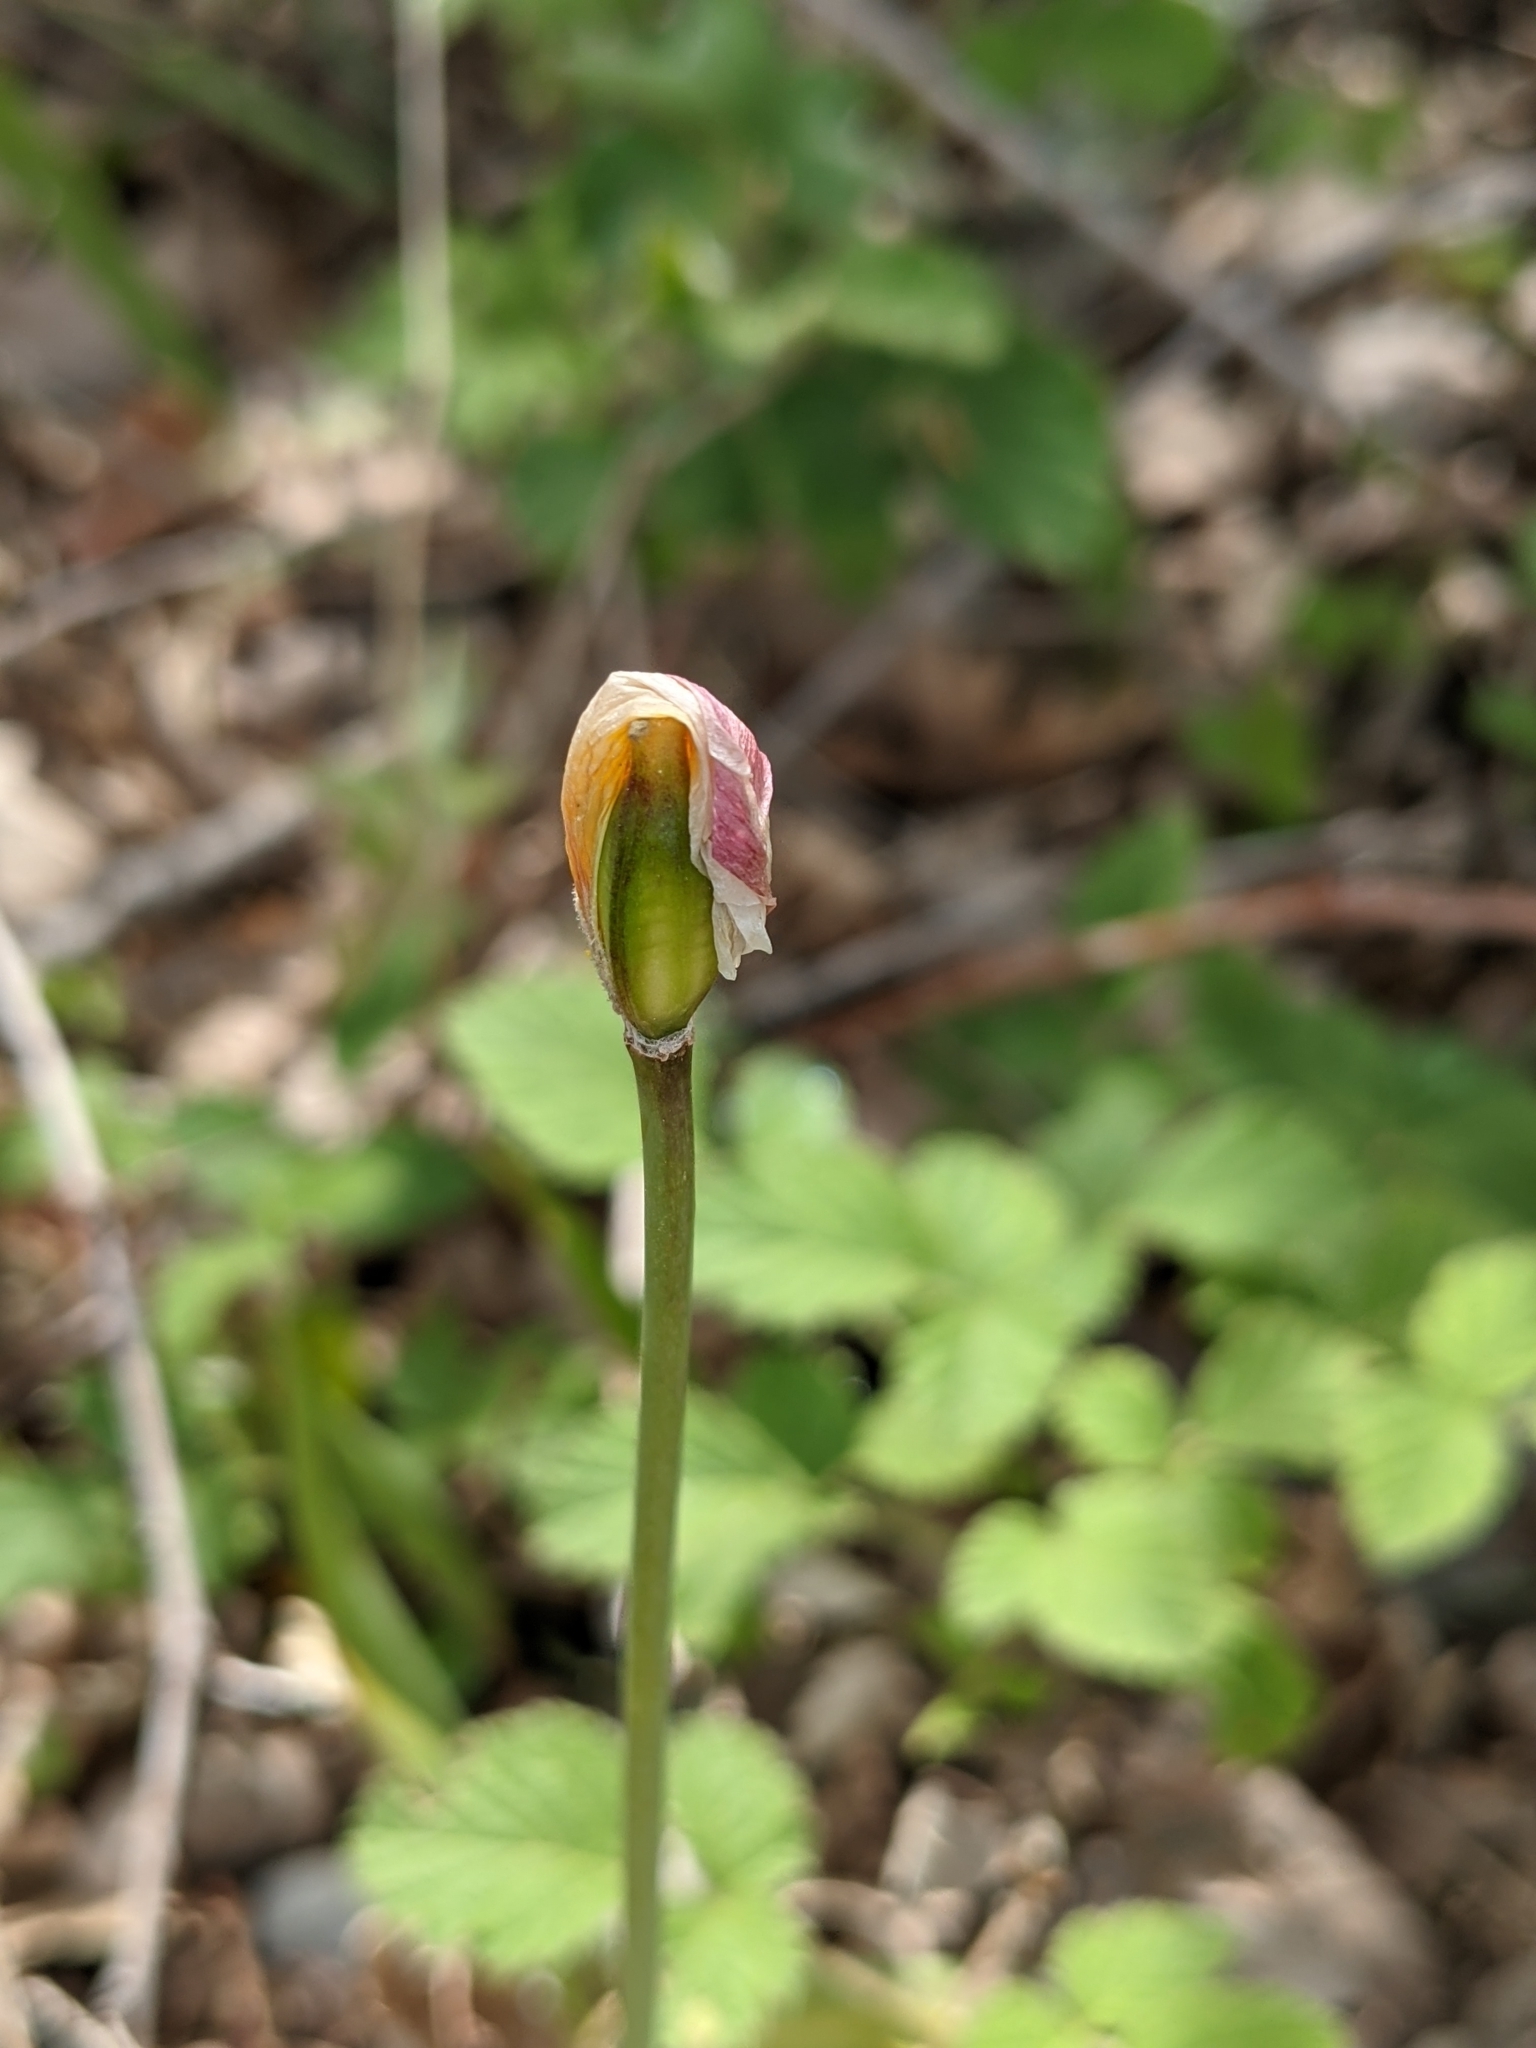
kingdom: Plantae
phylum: Tracheophyta
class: Liliopsida
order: Liliales
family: Liliaceae
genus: Tulipa
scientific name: Tulipa sylvestris
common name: Wild tulip
